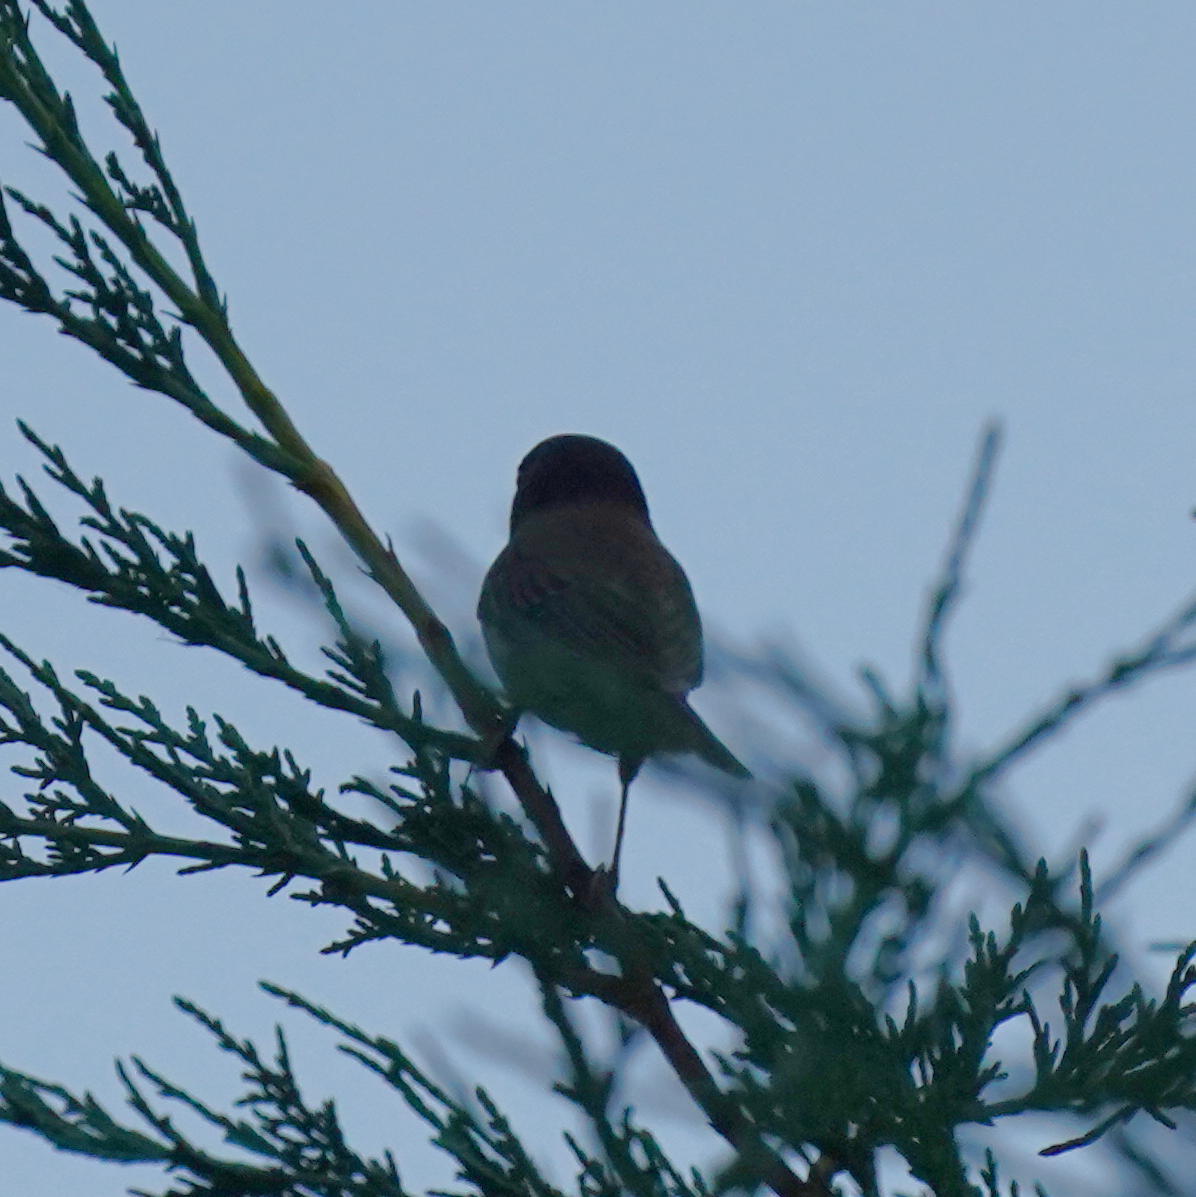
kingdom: Animalia
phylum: Chordata
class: Aves
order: Passeriformes
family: Passerellidae
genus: Junco
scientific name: Junco hyemalis
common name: Dark-eyed junco
